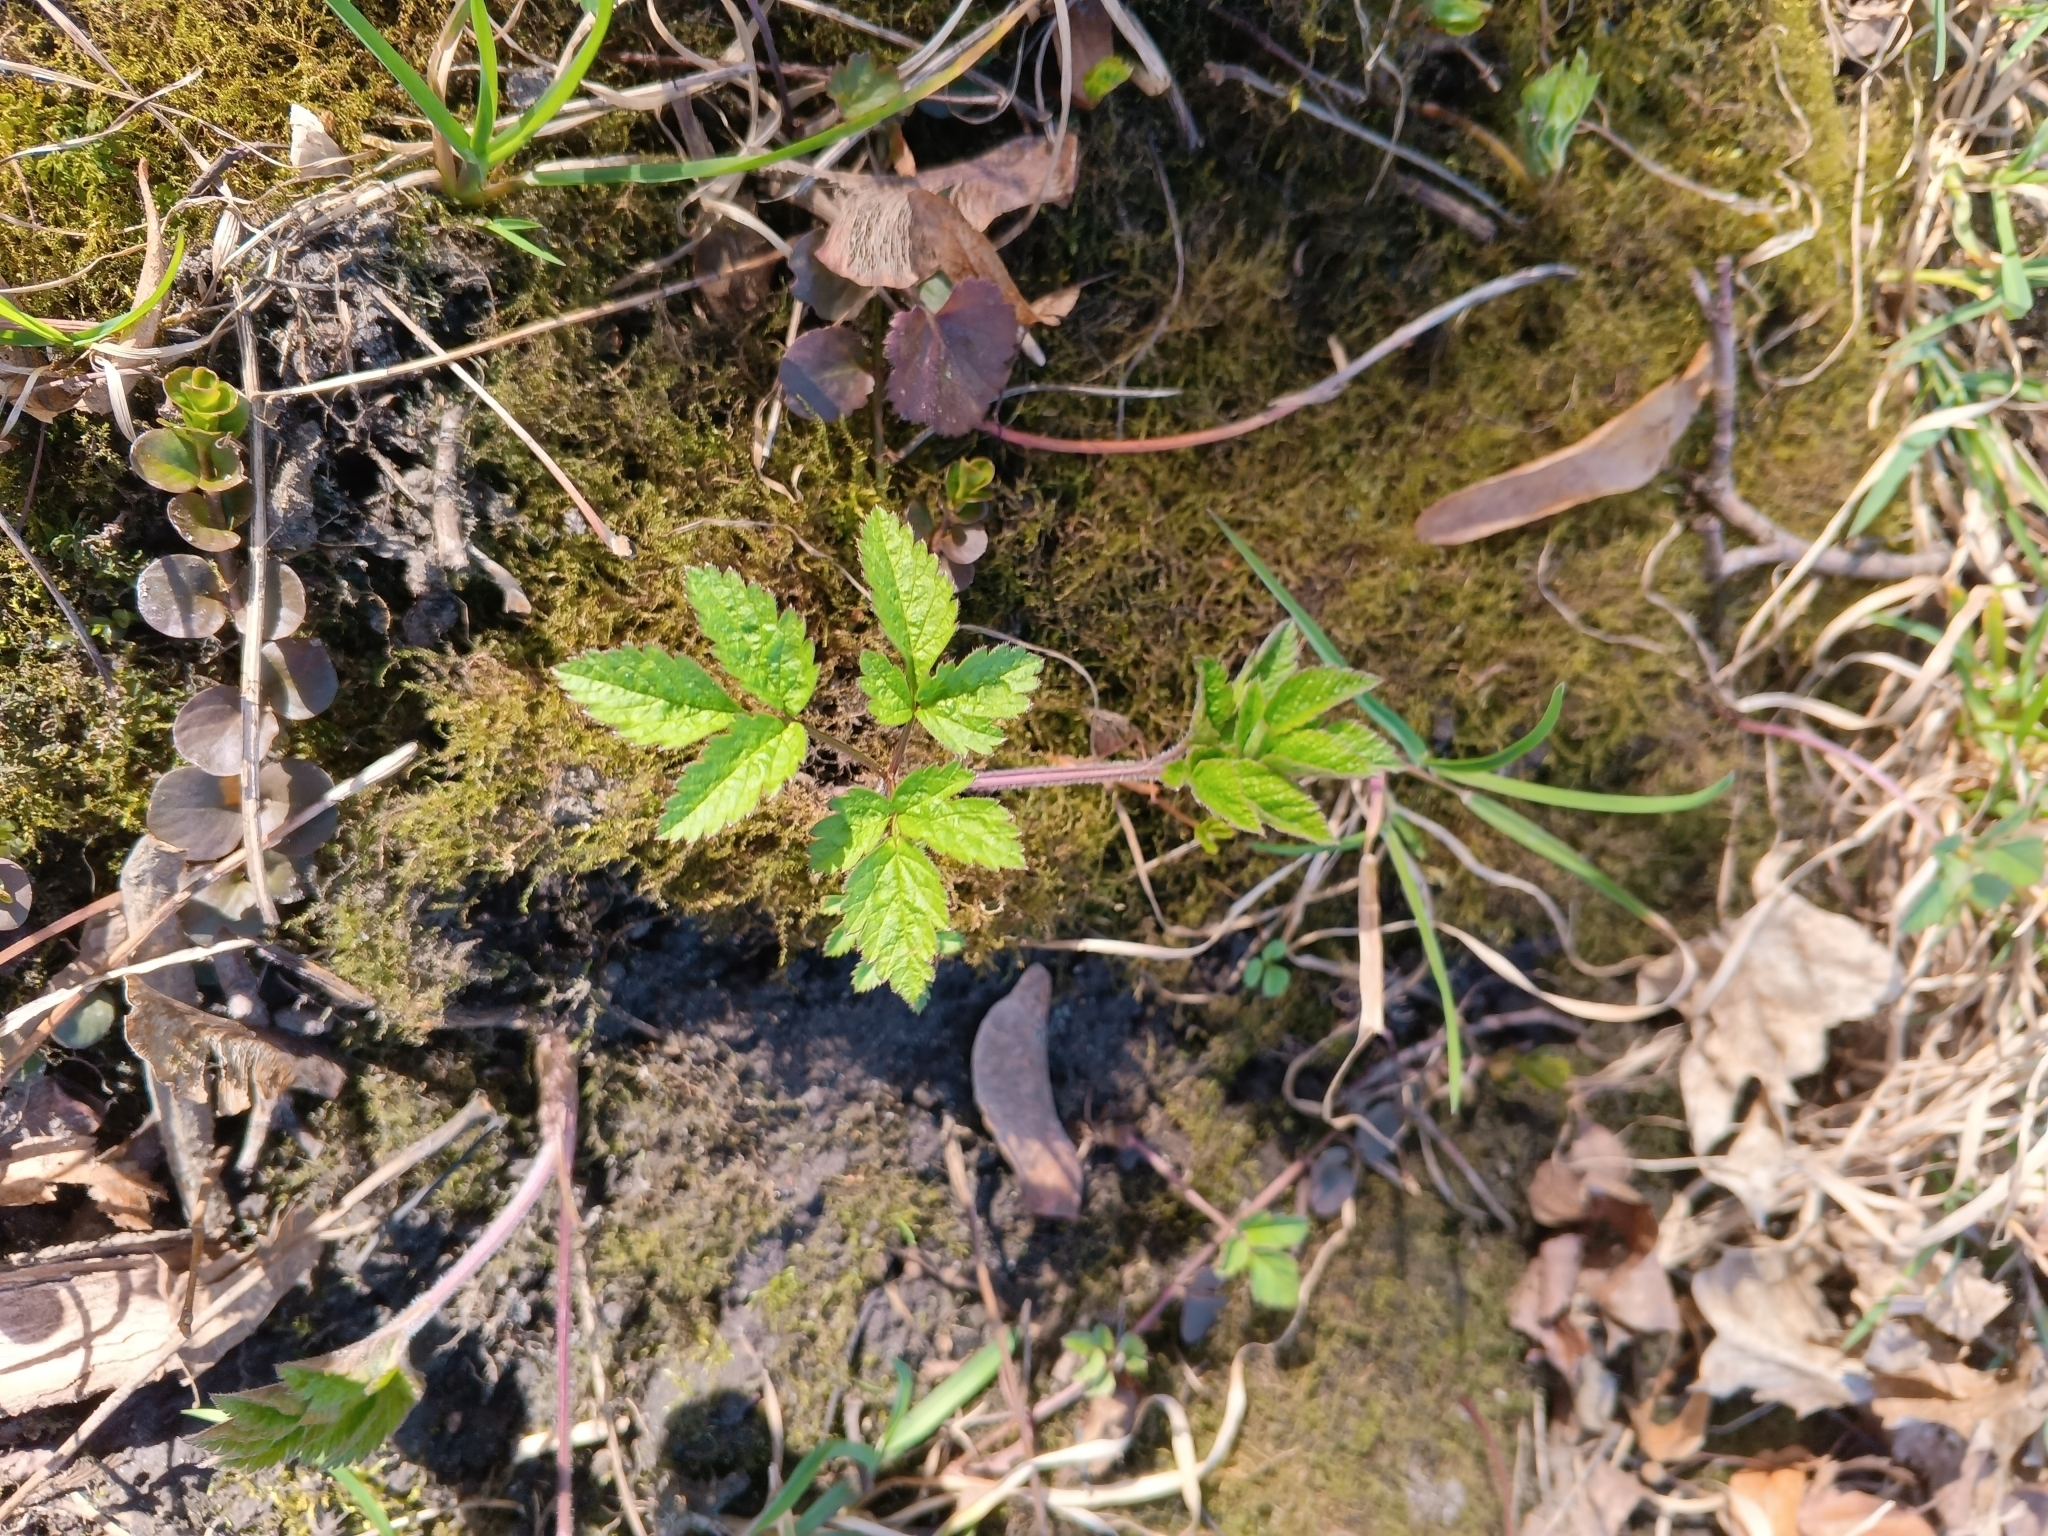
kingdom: Plantae
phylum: Tracheophyta
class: Magnoliopsida
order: Apiales
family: Apiaceae
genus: Chaerophyllum
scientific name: Chaerophyllum aromaticum
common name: Broadleaf chervil
